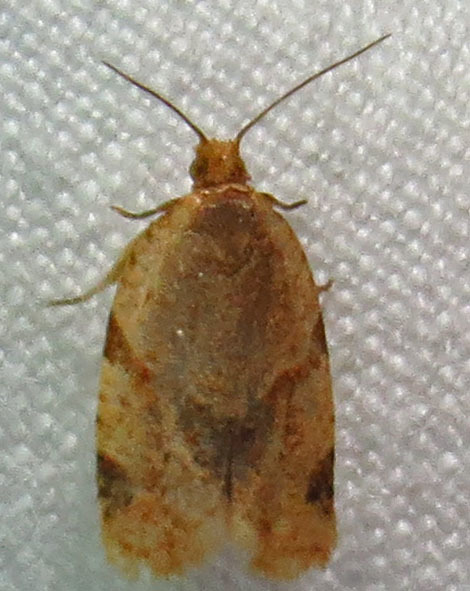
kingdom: Animalia
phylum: Arthropoda
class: Insecta
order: Lepidoptera
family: Tortricidae
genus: Clepsis
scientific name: Clepsis peritana
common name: Garden tortrix
